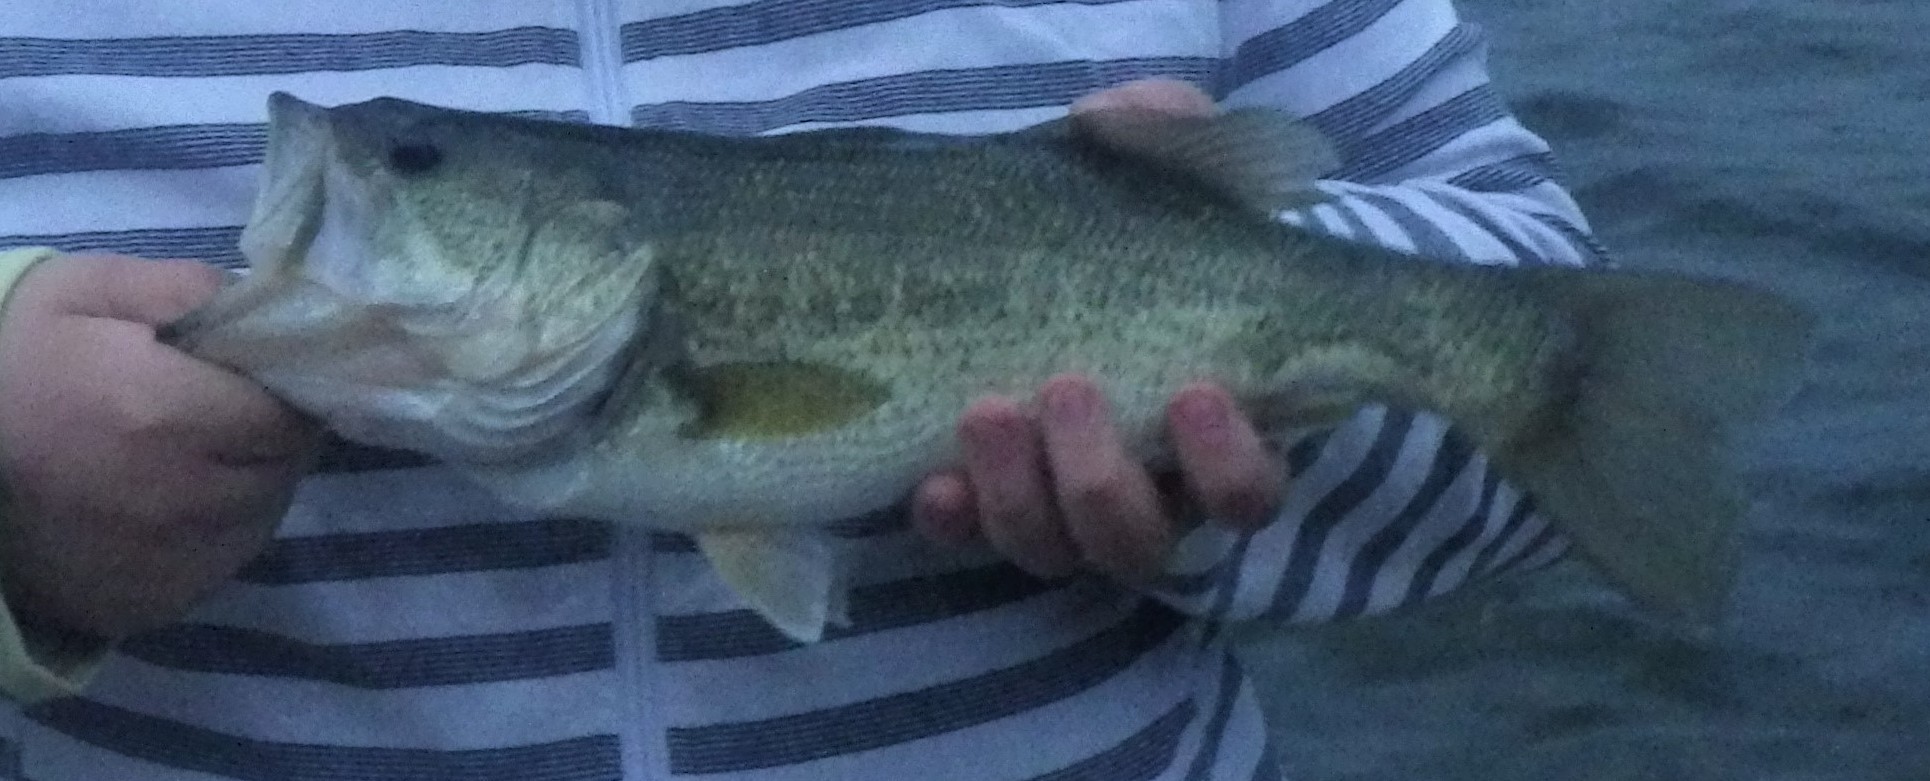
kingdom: Animalia
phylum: Chordata
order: Perciformes
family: Centrarchidae
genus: Micropterus
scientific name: Micropterus
